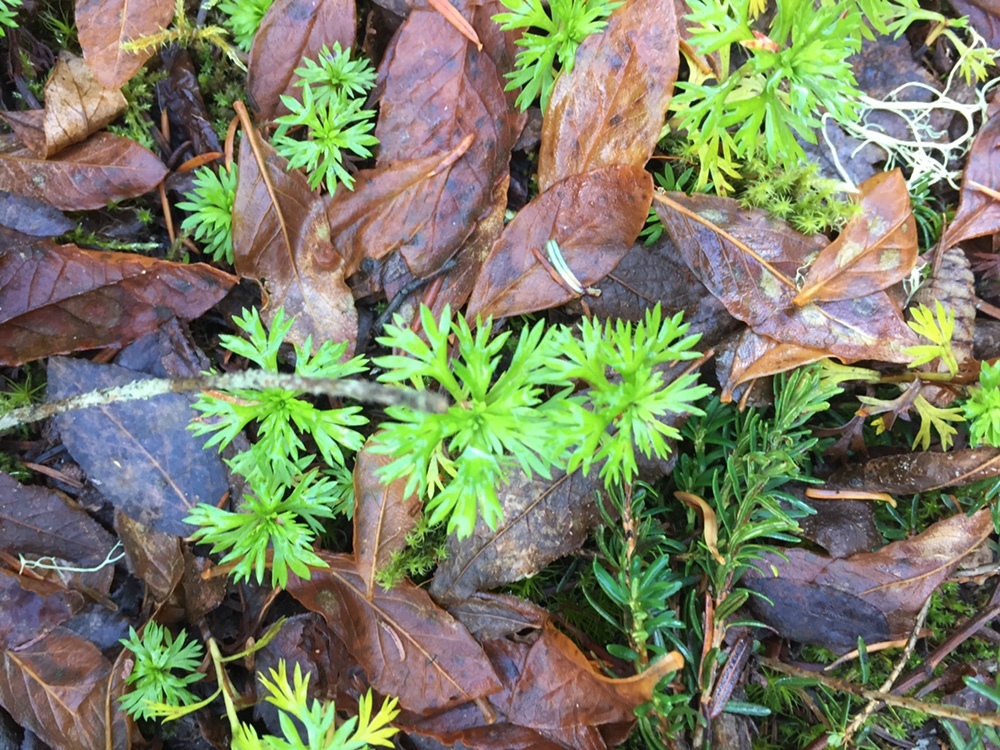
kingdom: Plantae
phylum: Tracheophyta
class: Magnoliopsida
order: Rosales
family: Rosaceae
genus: Luetkea
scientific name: Luetkea pectinata
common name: Partridgefoot
